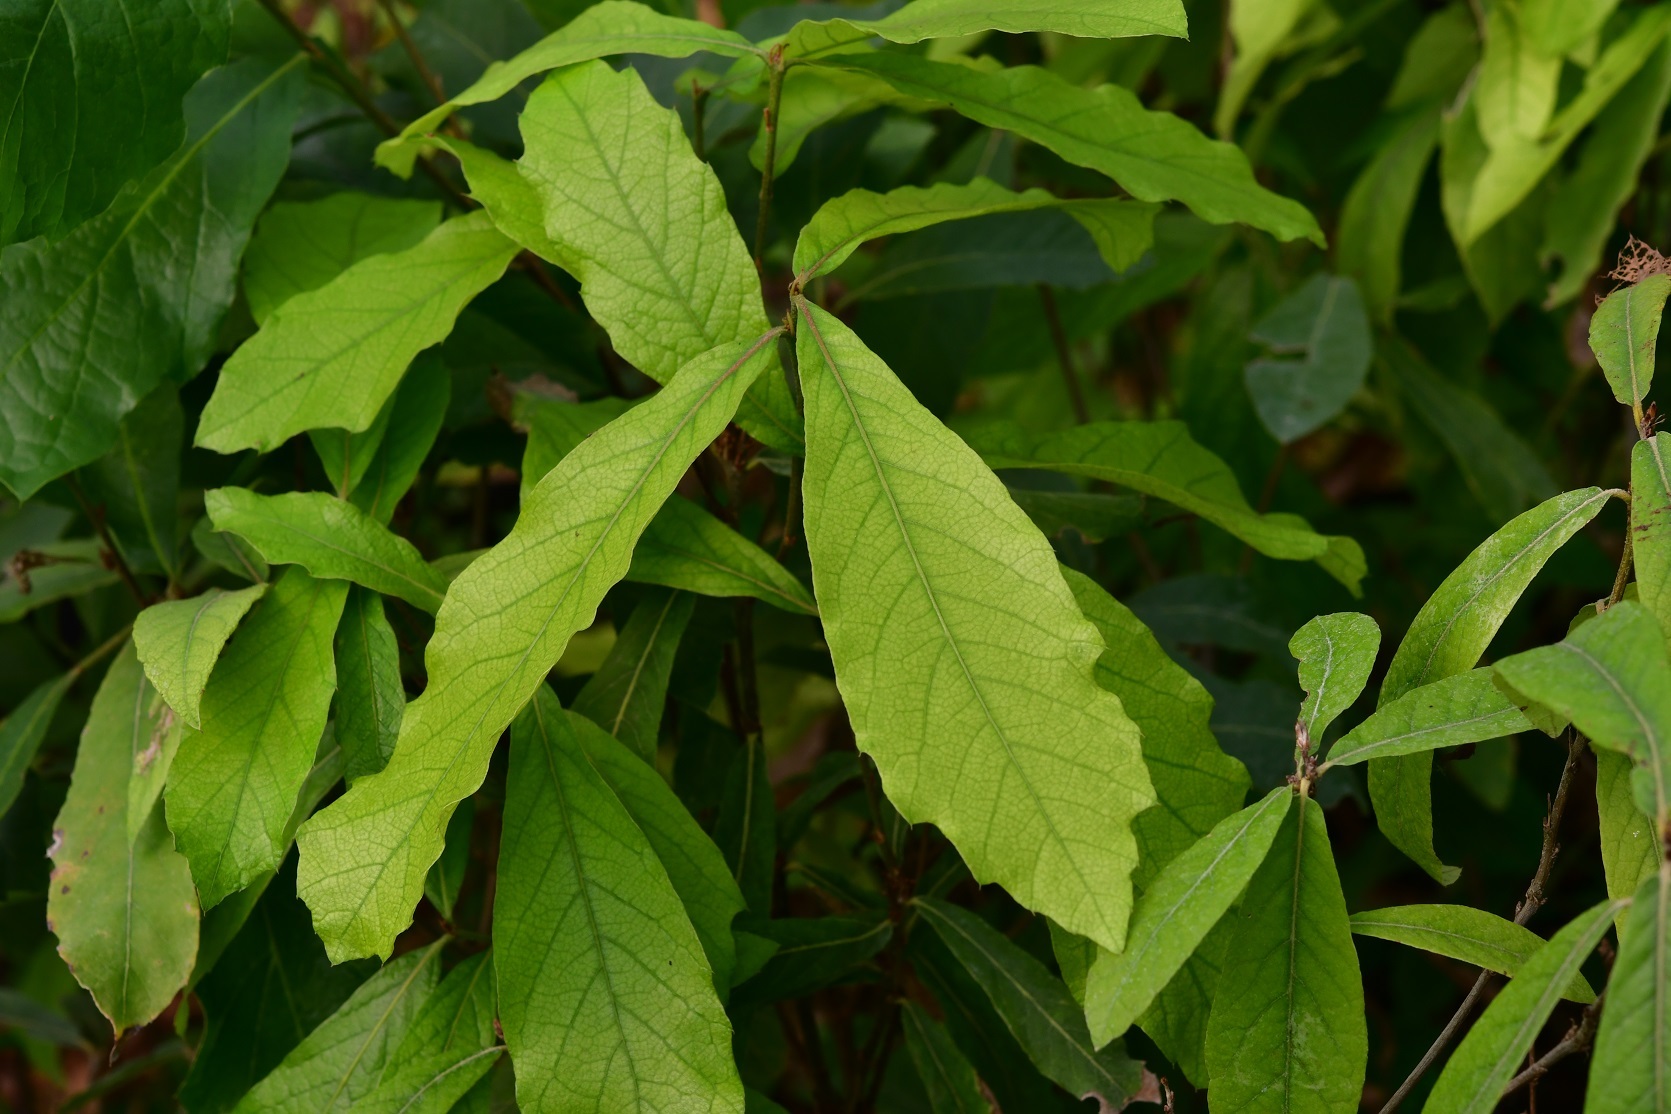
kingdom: Plantae
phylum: Tracheophyta
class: Magnoliopsida
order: Fagales
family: Fagaceae
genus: Quercus
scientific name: Quercus castanea
